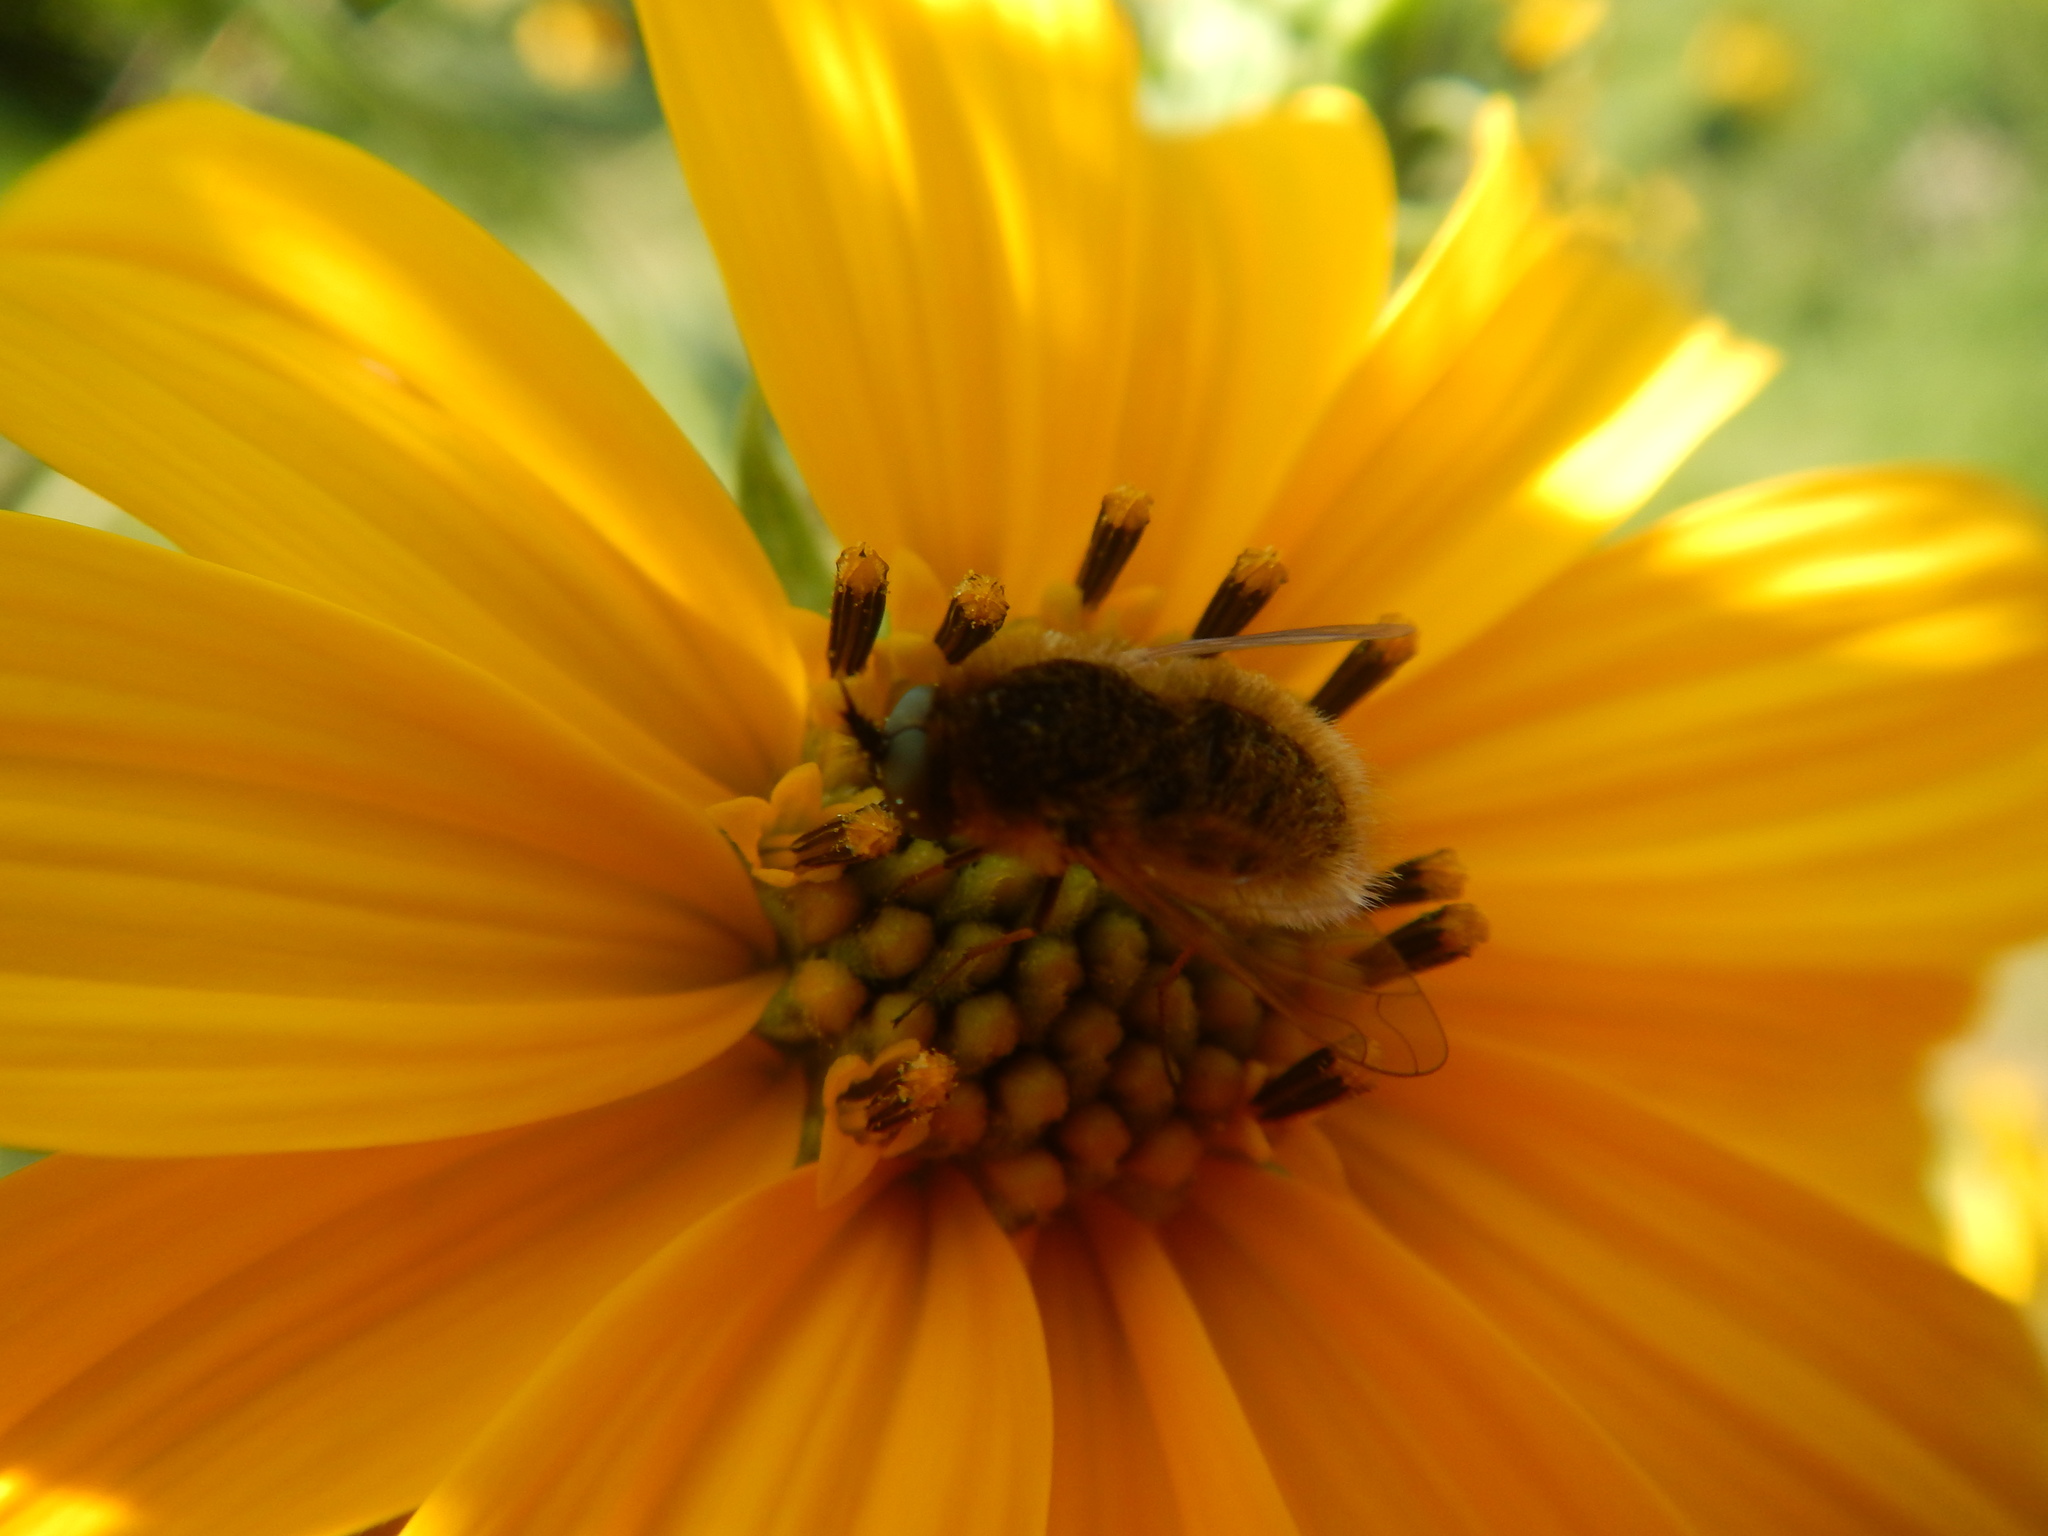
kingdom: Animalia
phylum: Arthropoda
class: Insecta
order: Diptera
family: Bombyliidae
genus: Sparnopolius
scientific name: Sparnopolius confusus
